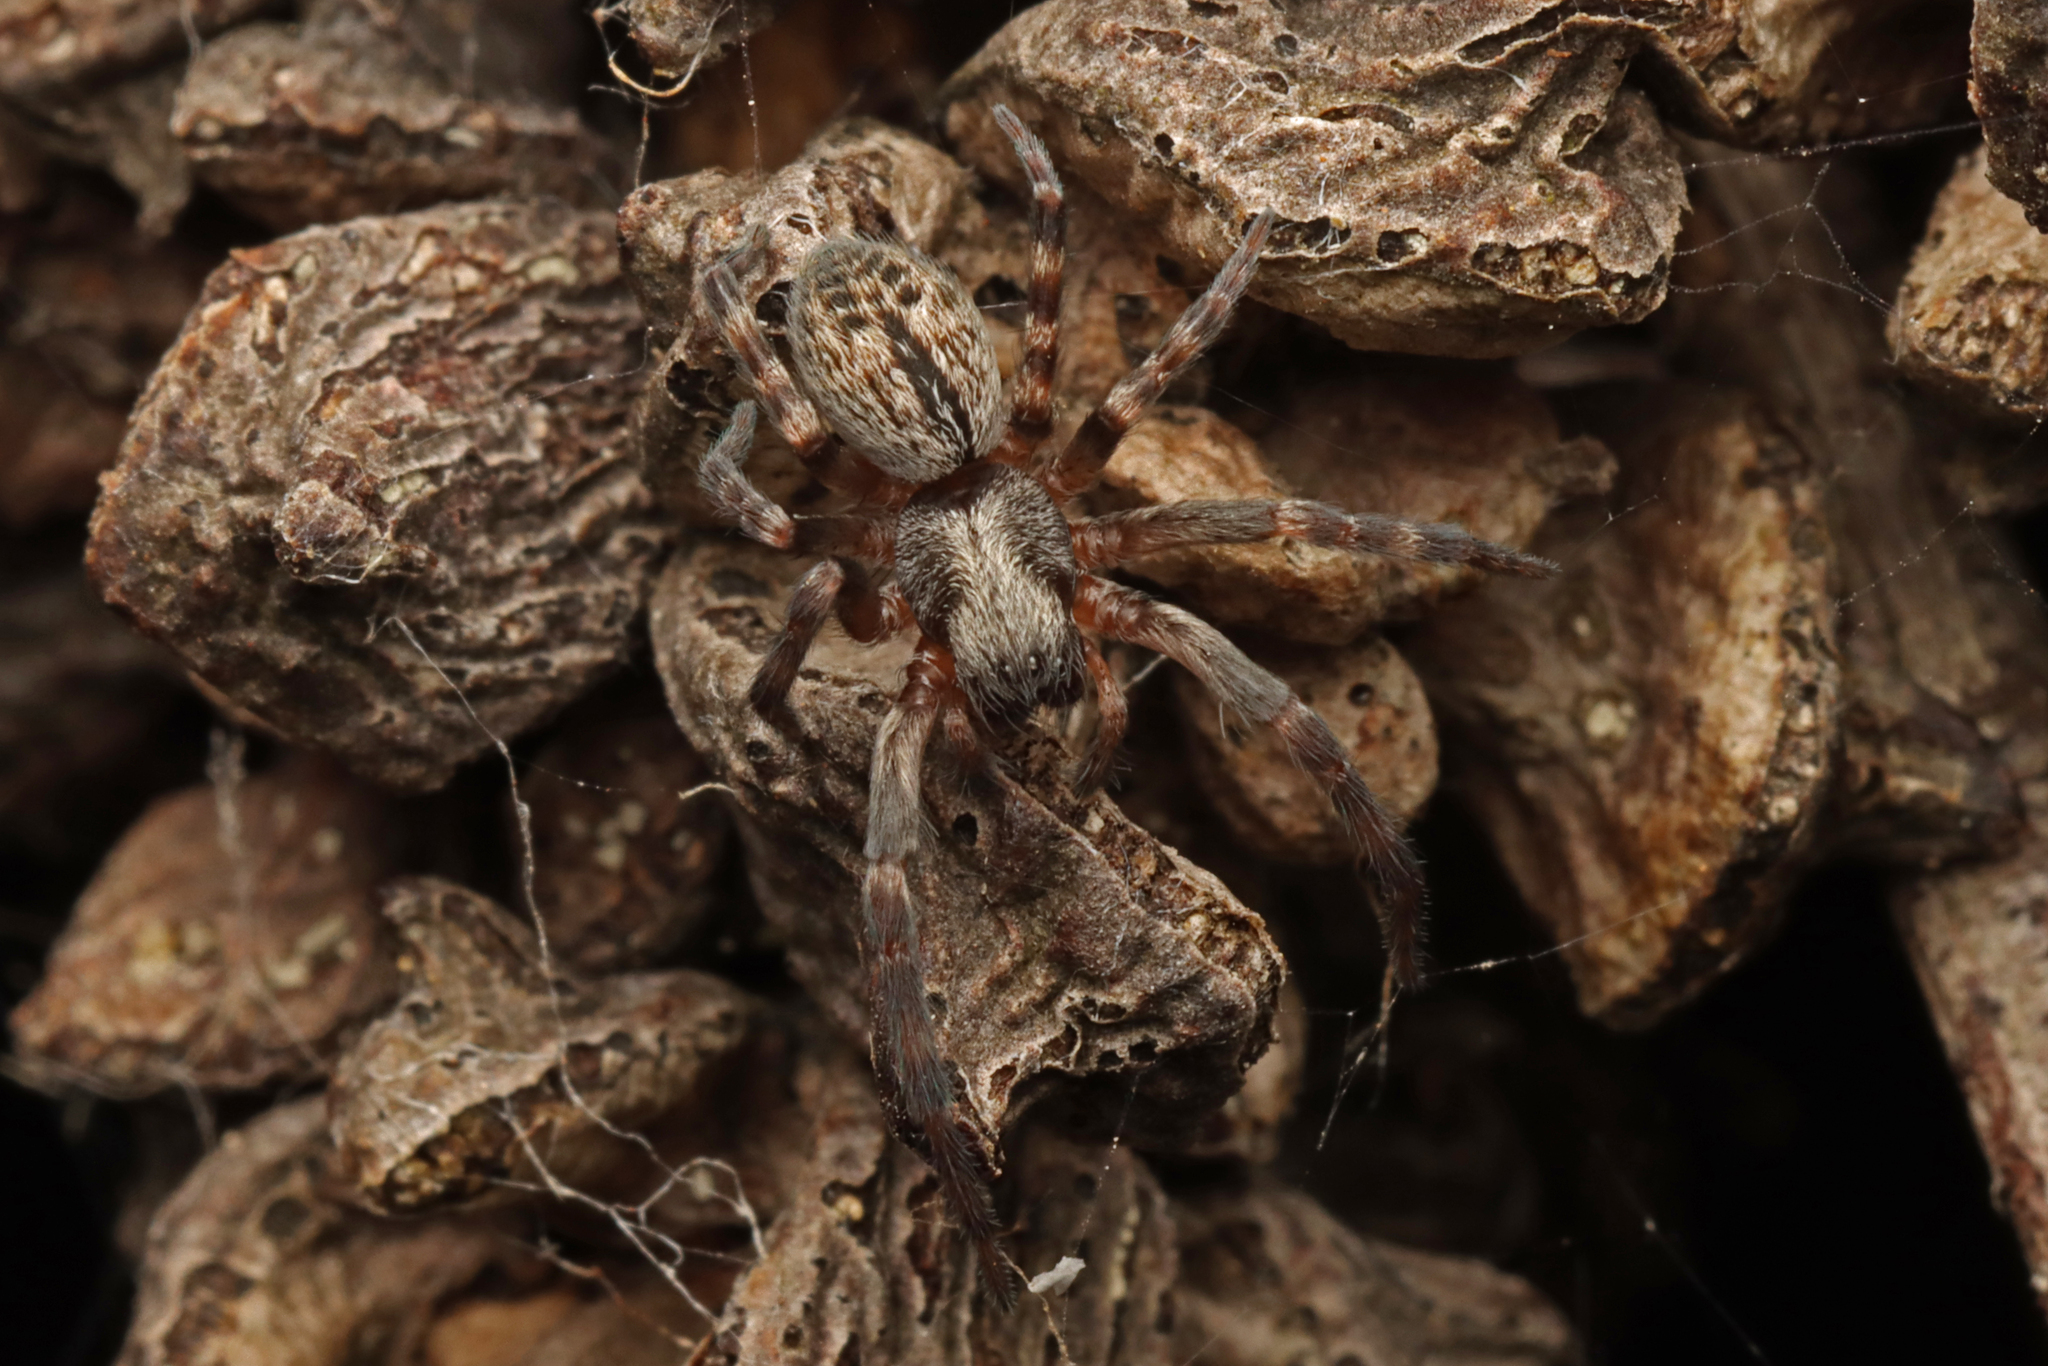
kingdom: Animalia
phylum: Arthropoda
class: Arachnida
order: Araneae
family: Desidae
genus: Badumna
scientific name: Badumna longinqua
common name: Gray house spider
